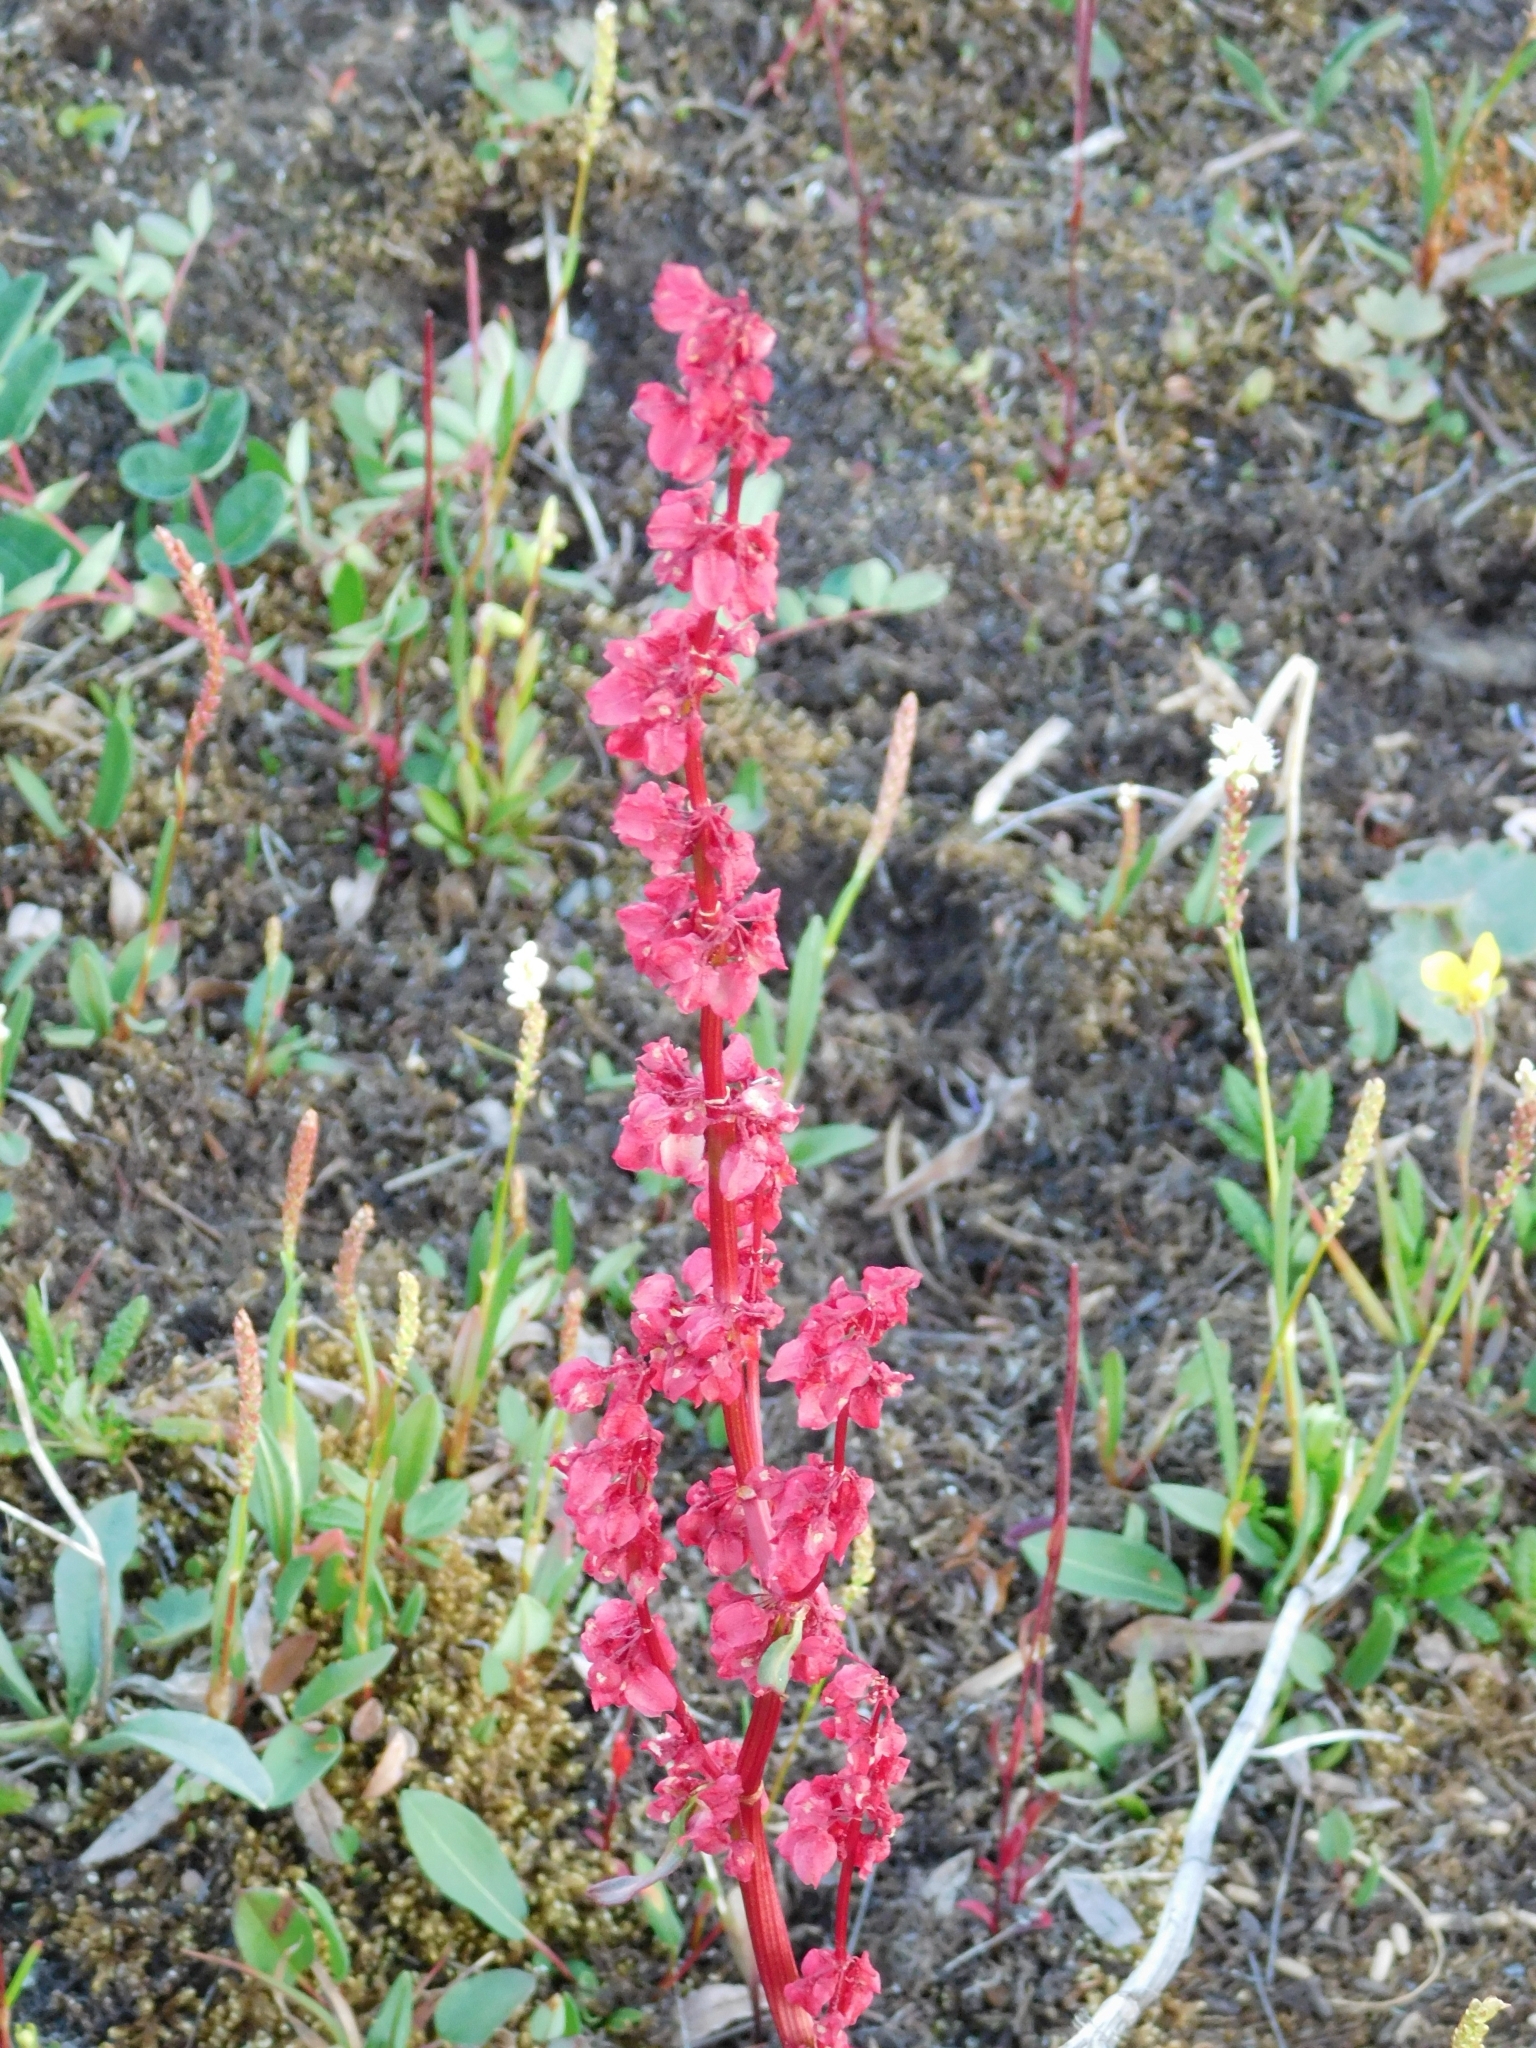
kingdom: Plantae
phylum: Tracheophyta
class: Magnoliopsida
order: Caryophyllales
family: Polygonaceae
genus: Rumex
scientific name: Rumex arcticus
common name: Arctic dock
